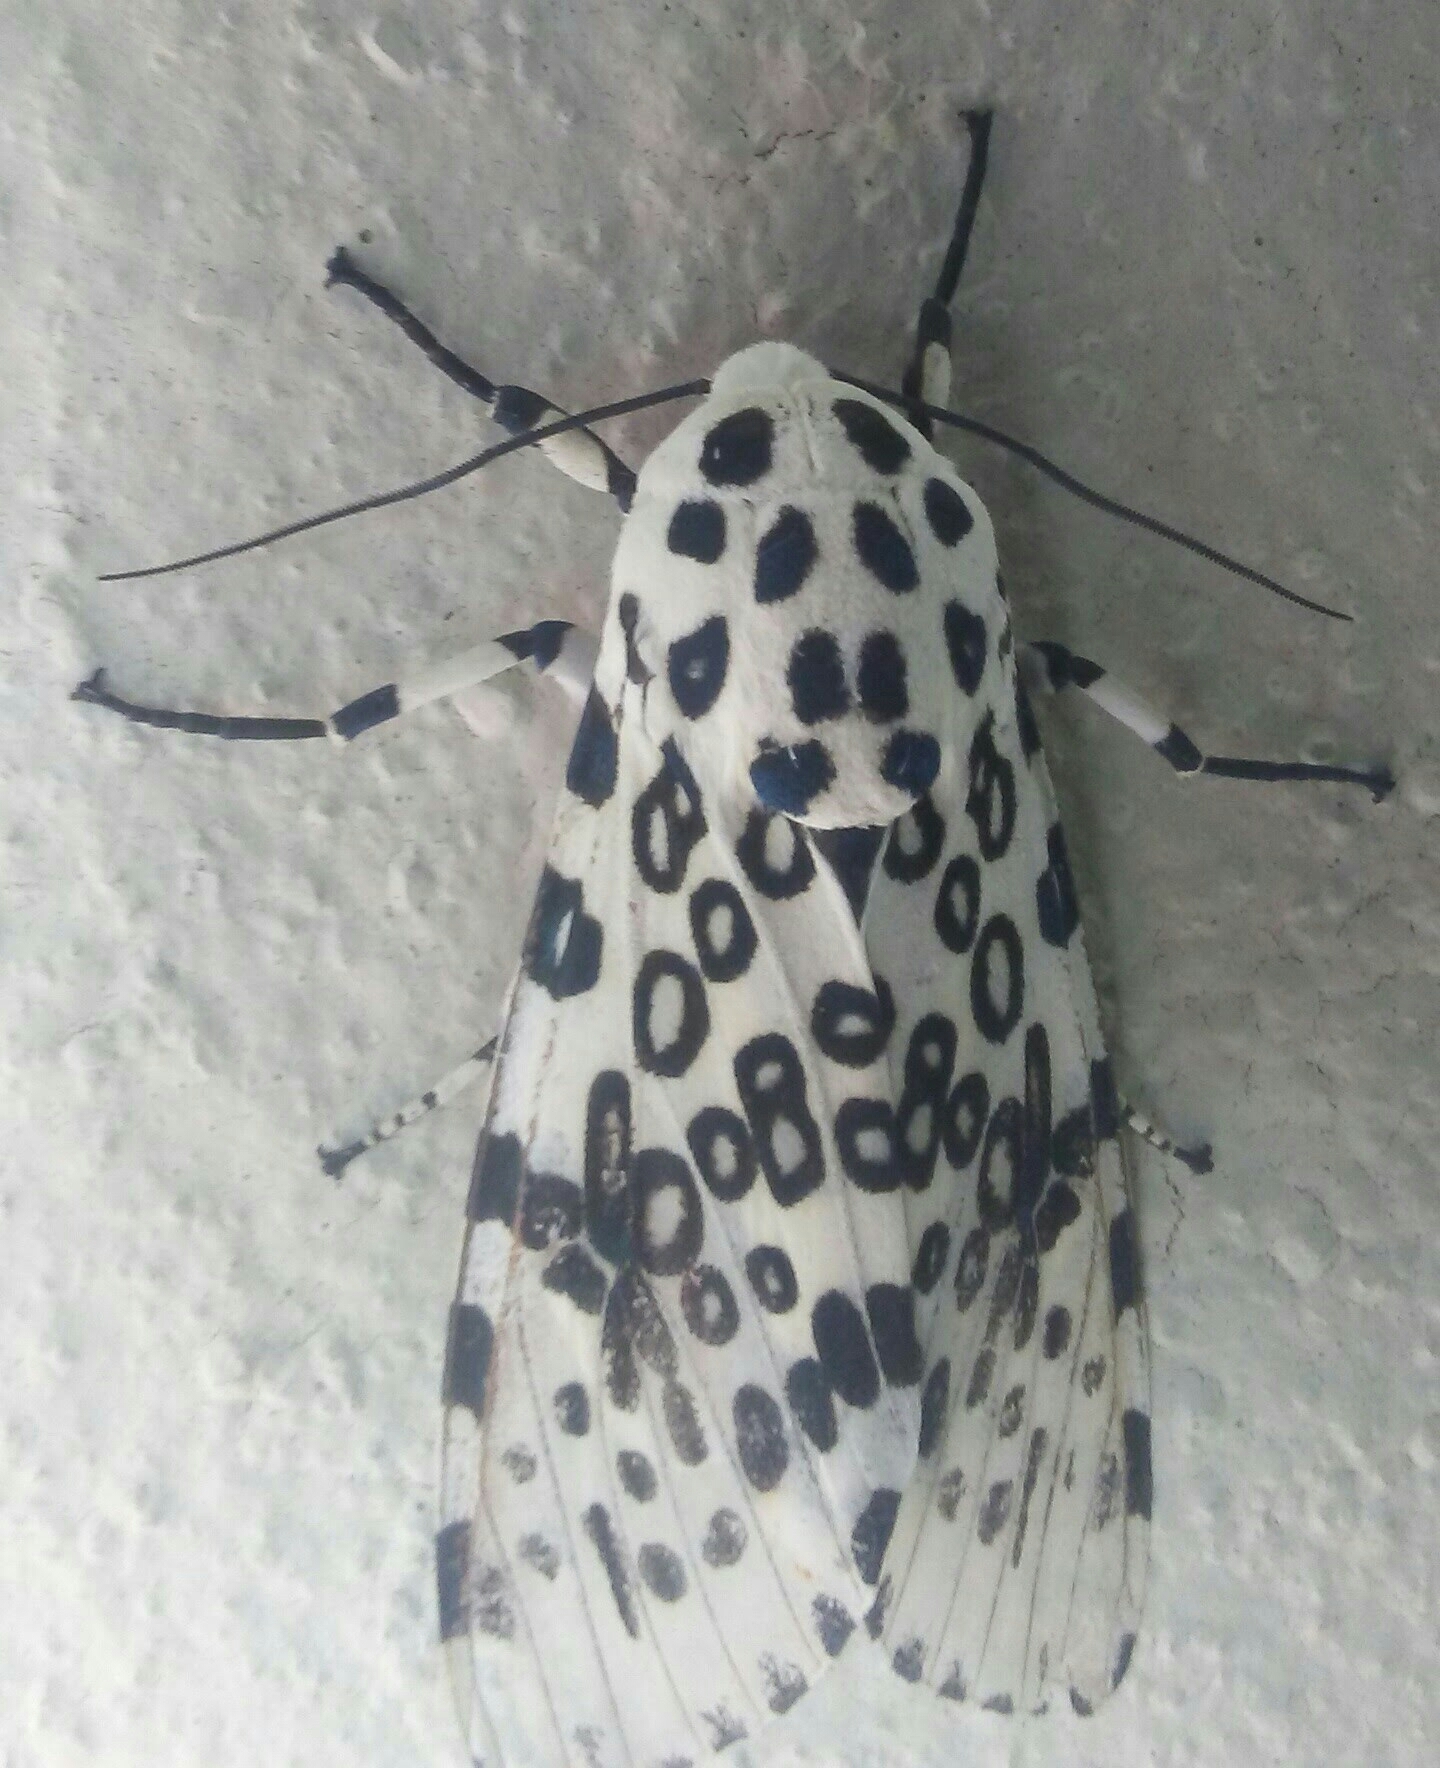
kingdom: Animalia
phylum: Arthropoda
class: Insecta
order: Lepidoptera
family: Erebidae
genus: Hypercompe
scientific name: Hypercompe scribonia
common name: Giant leopard moth
